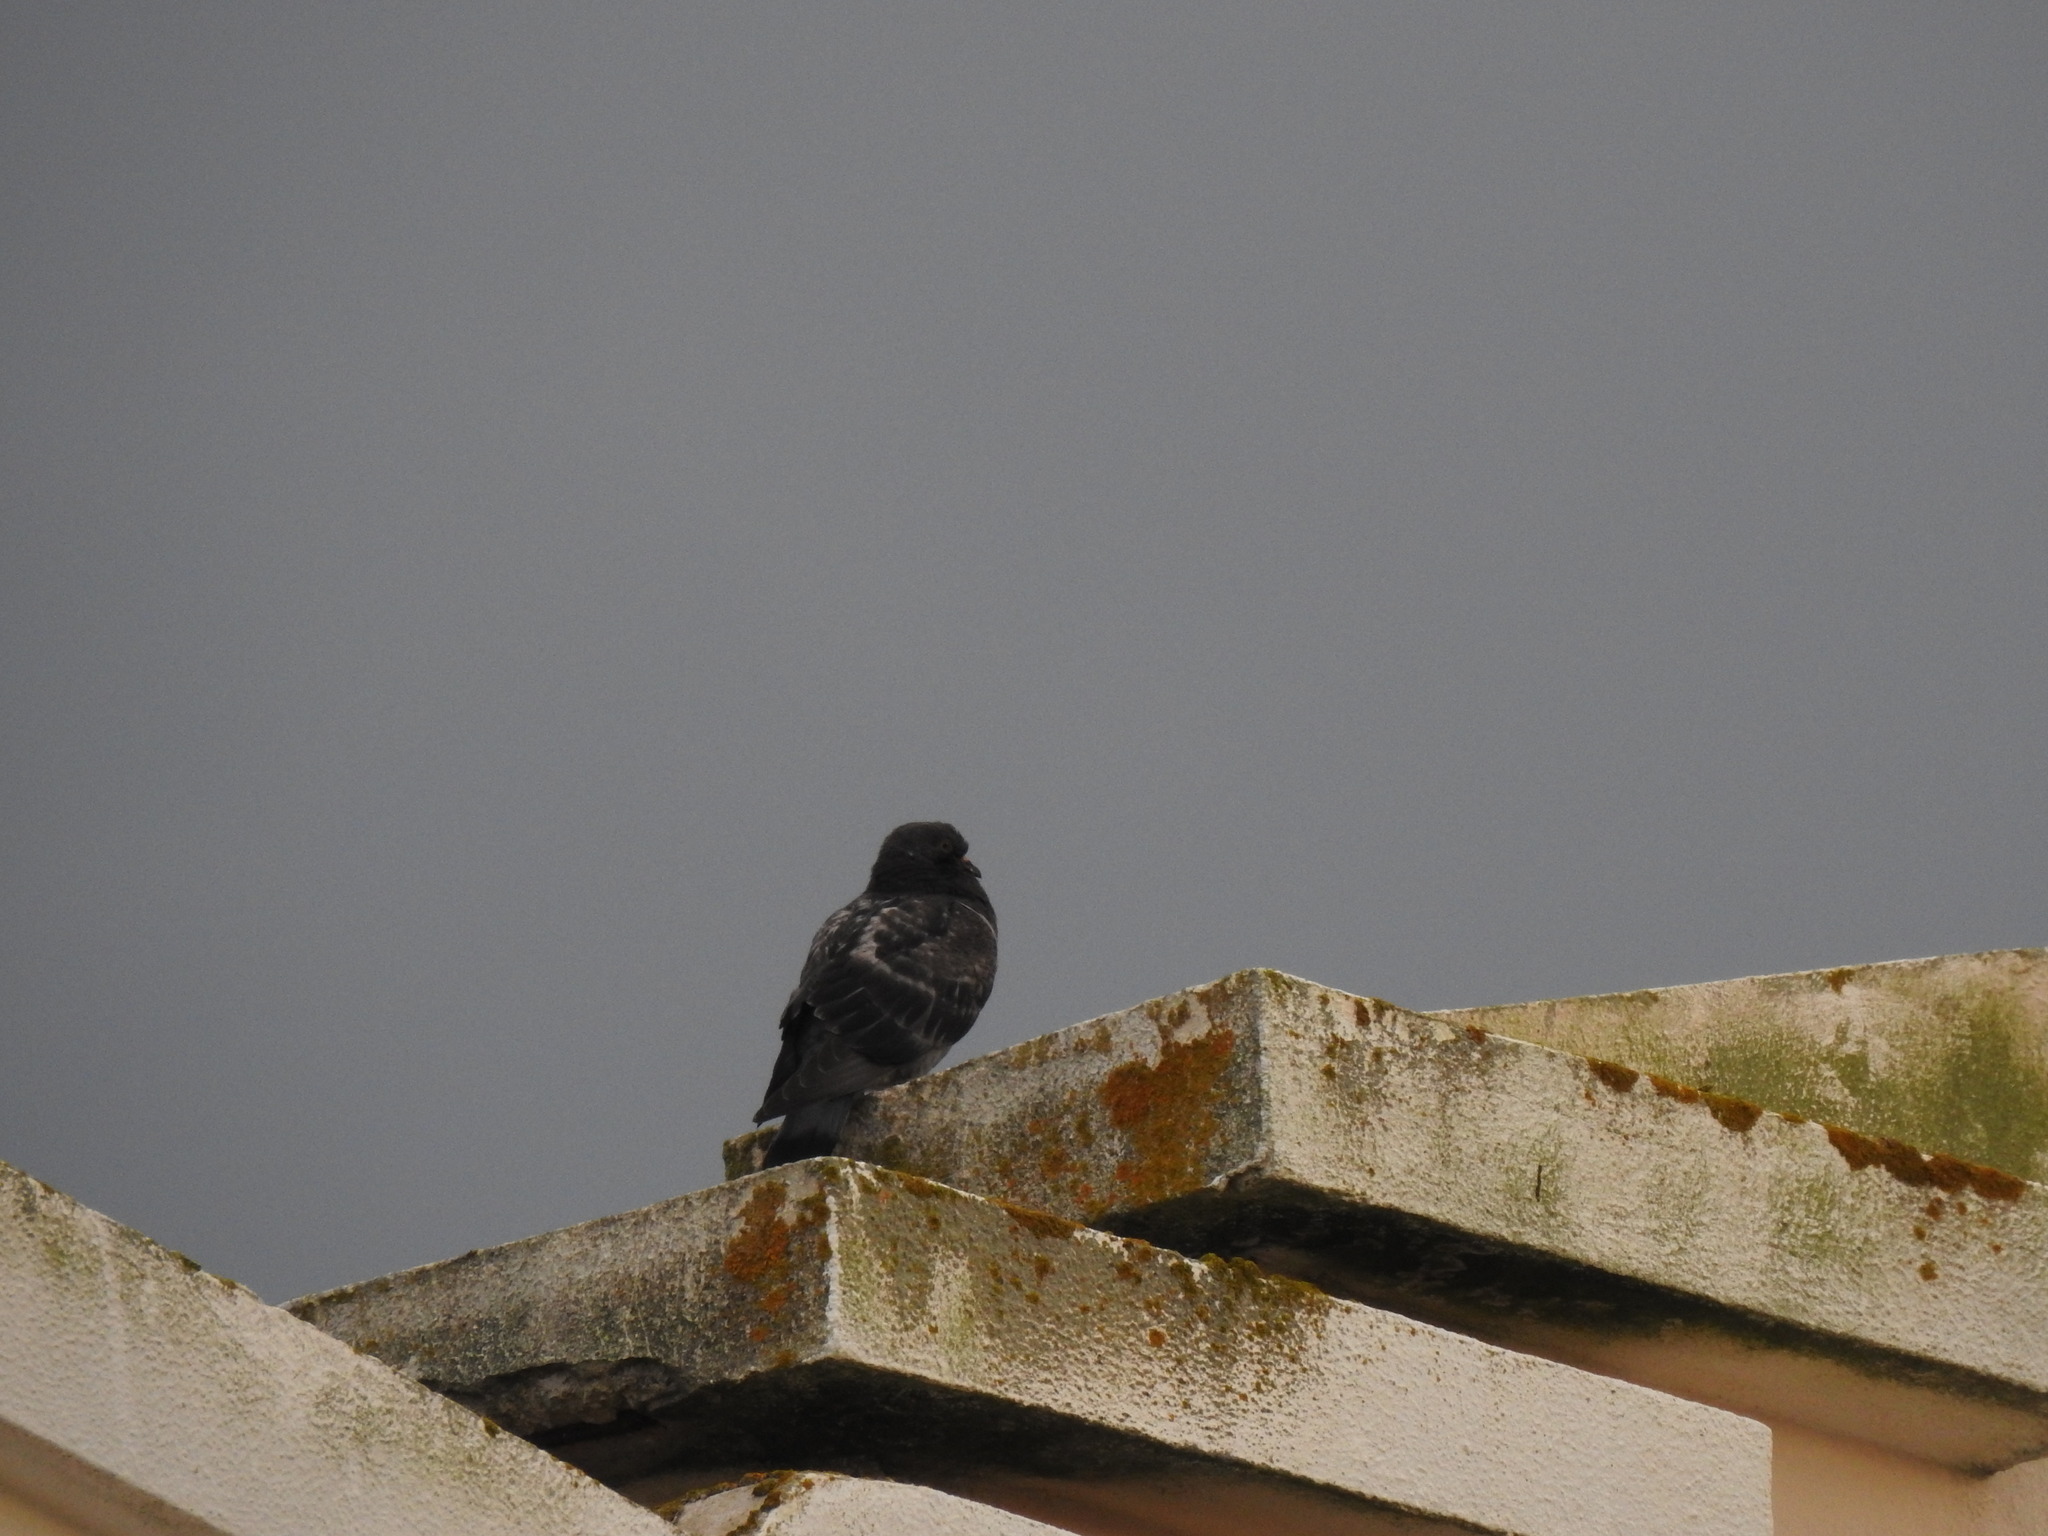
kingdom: Animalia
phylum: Chordata
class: Aves
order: Columbiformes
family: Columbidae
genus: Columba
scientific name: Columba livia
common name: Rock pigeon
